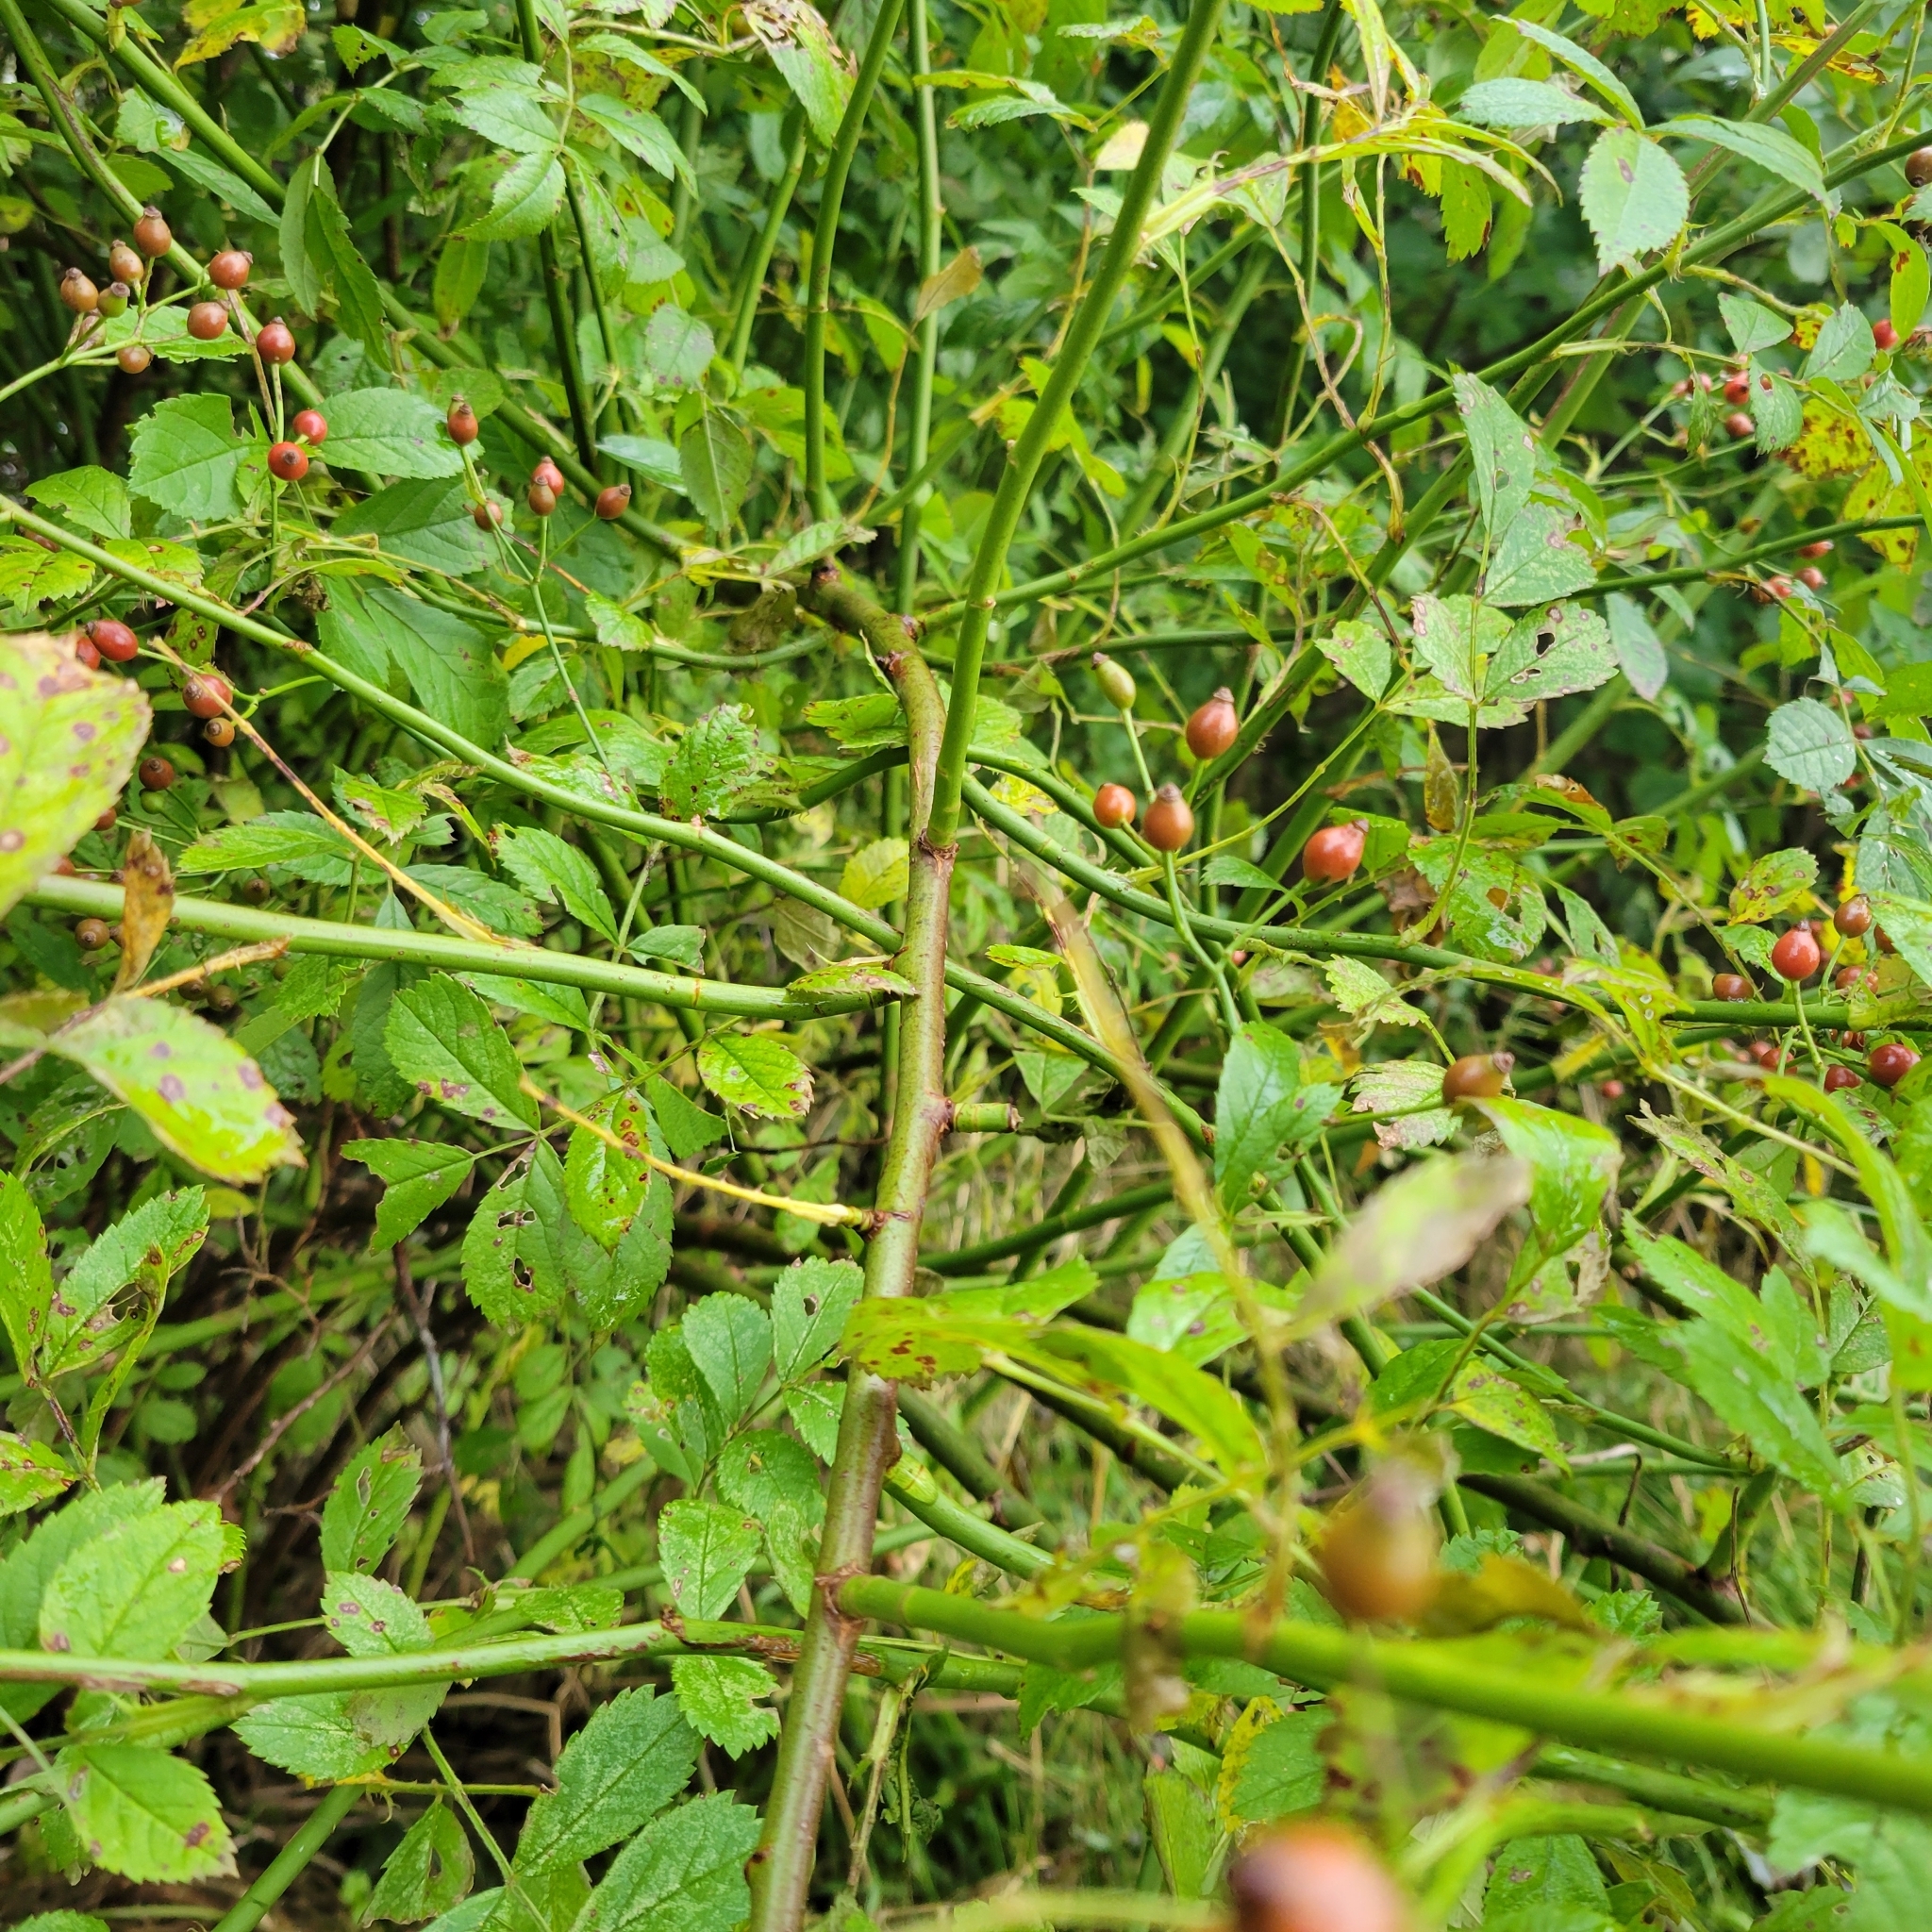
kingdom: Plantae
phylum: Tracheophyta
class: Magnoliopsida
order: Rosales
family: Rosaceae
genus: Rosa
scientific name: Rosa multiflora
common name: Multiflora rose
